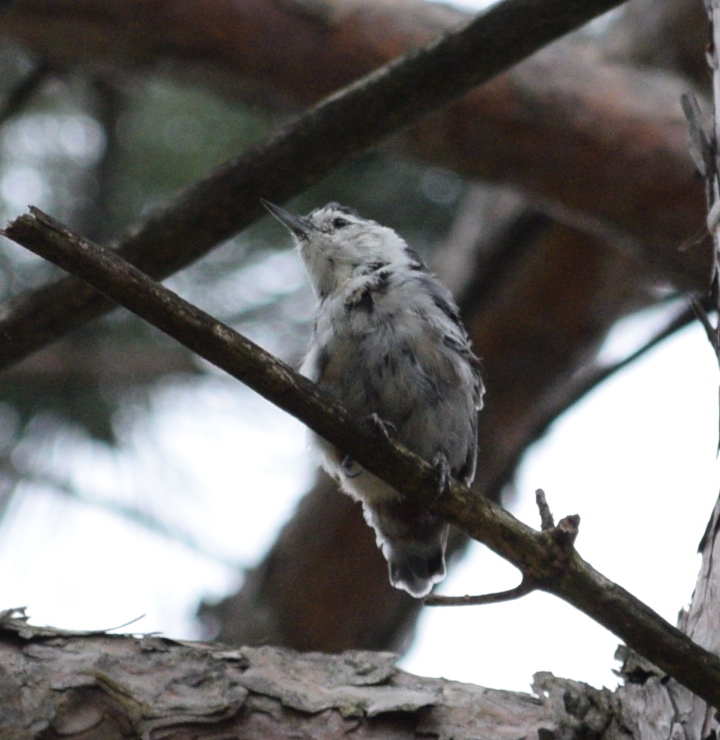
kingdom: Animalia
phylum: Chordata
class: Aves
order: Passeriformes
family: Sittidae
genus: Sitta
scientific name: Sitta carolinensis
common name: White-breasted nuthatch
